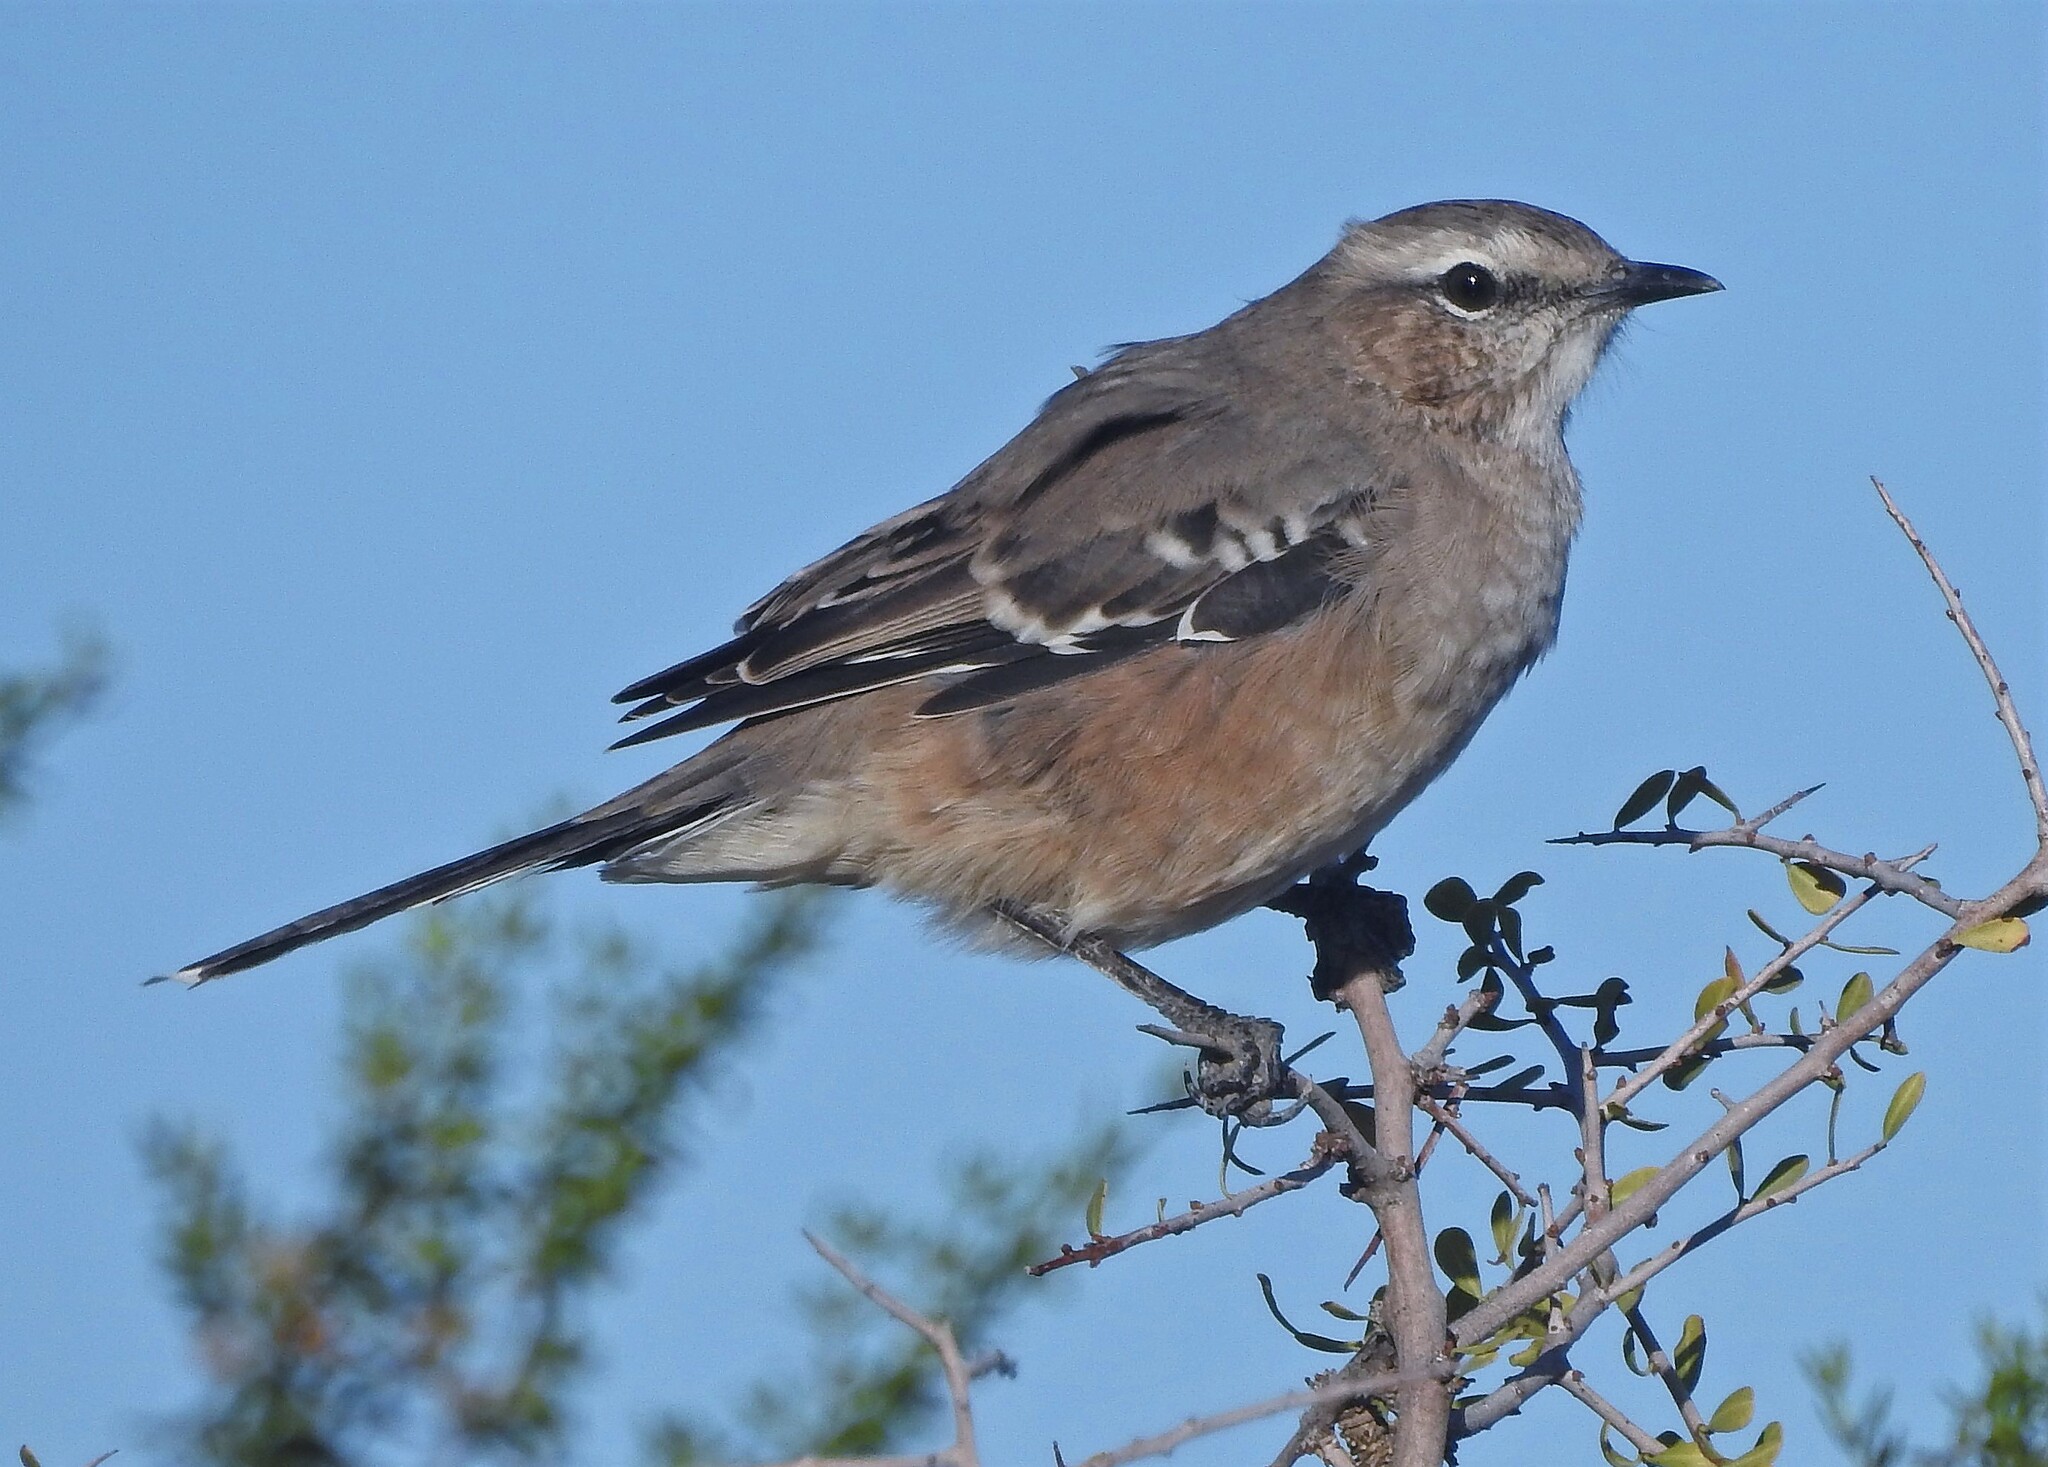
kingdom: Animalia
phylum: Chordata
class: Aves
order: Passeriformes
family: Mimidae
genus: Mimus
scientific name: Mimus patagonicus
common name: Patagonian mockingbird
